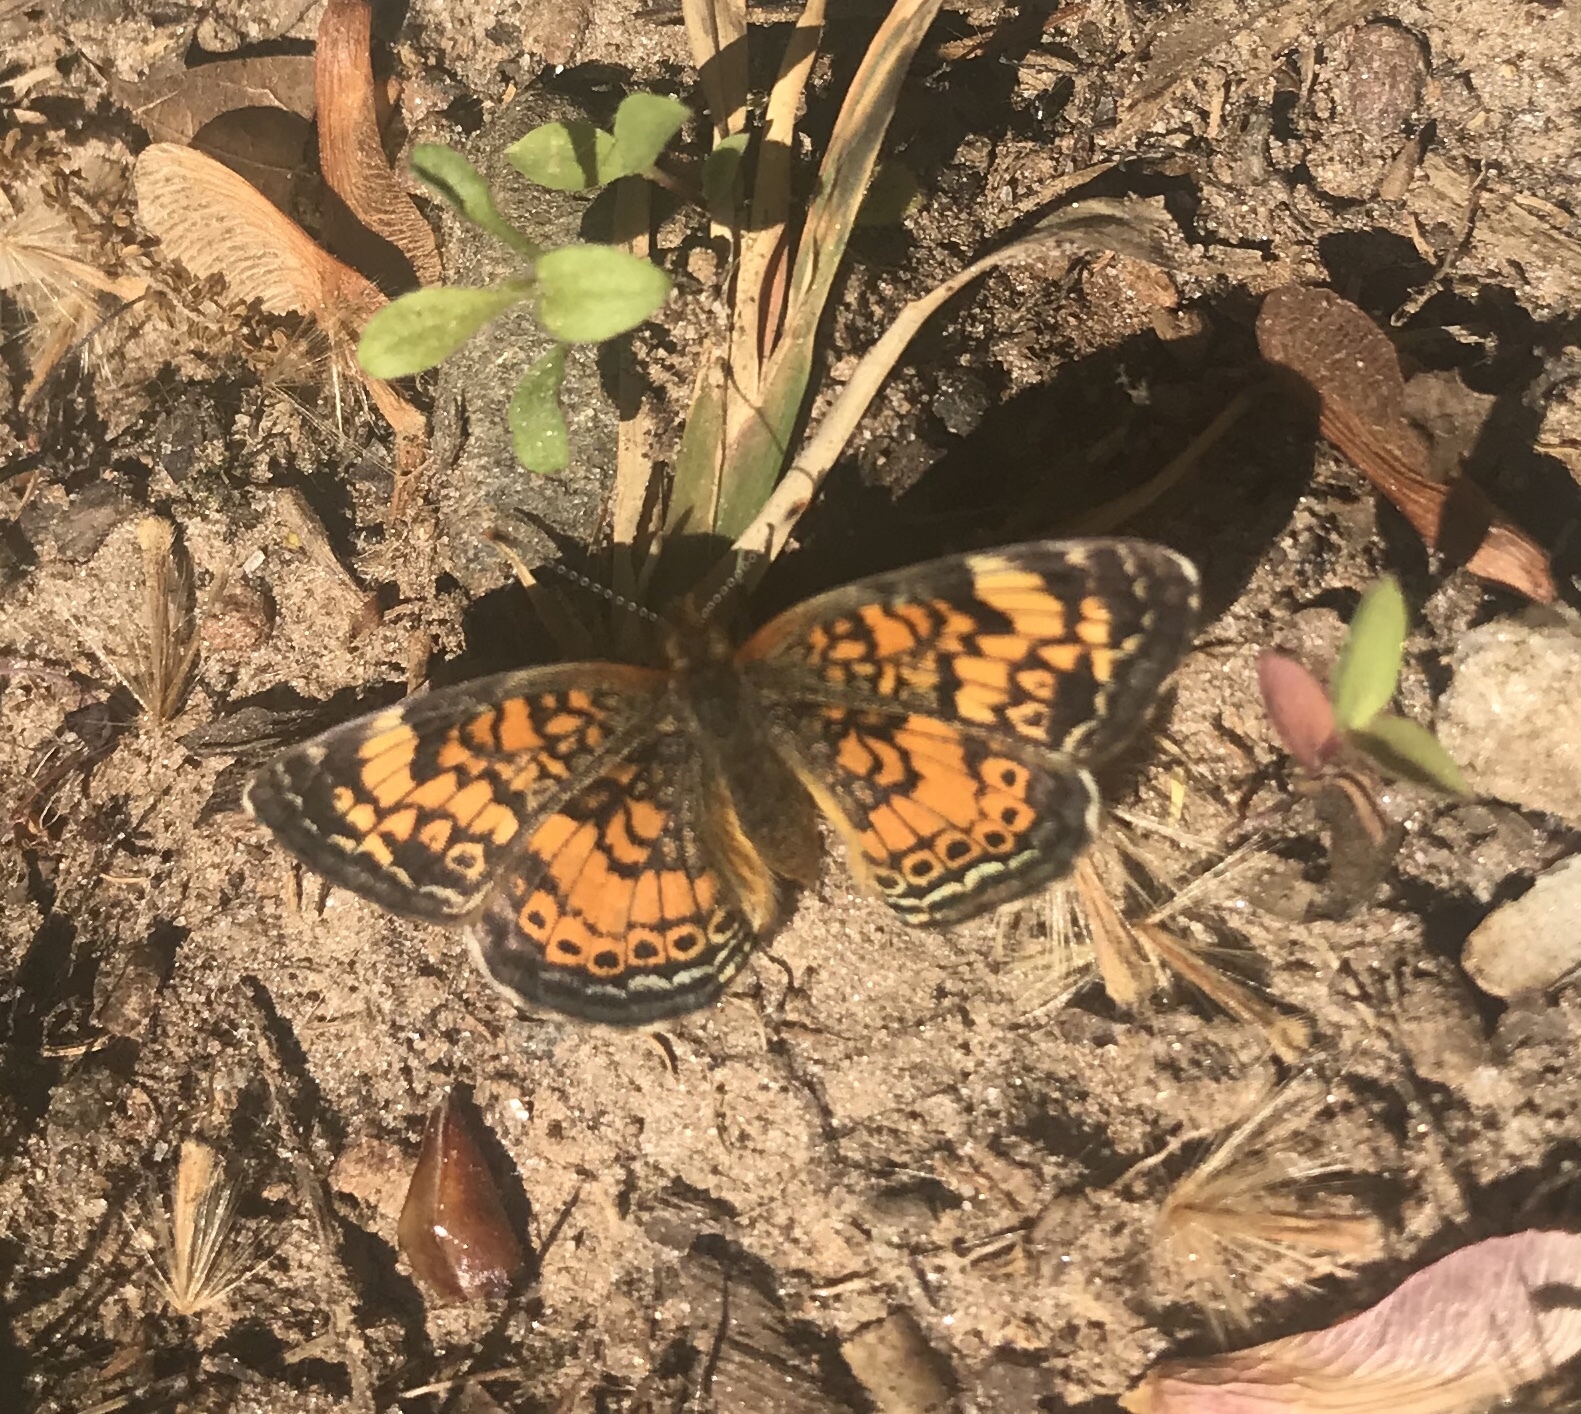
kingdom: Animalia
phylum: Arthropoda
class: Insecta
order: Lepidoptera
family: Nymphalidae
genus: Phyciodes
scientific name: Phyciodes tharos
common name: Pearl crescent
